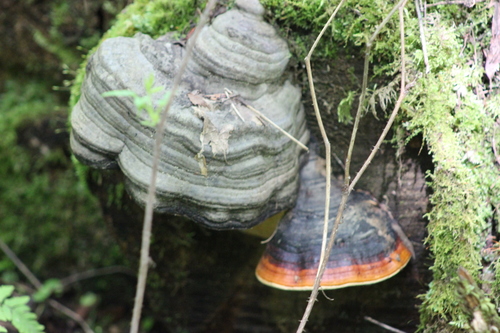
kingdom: Fungi
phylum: Basidiomycota
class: Agaricomycetes
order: Polyporales
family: Fomitopsidaceae
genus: Fomitopsis
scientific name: Fomitopsis pinicola
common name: Red-belted bracket
